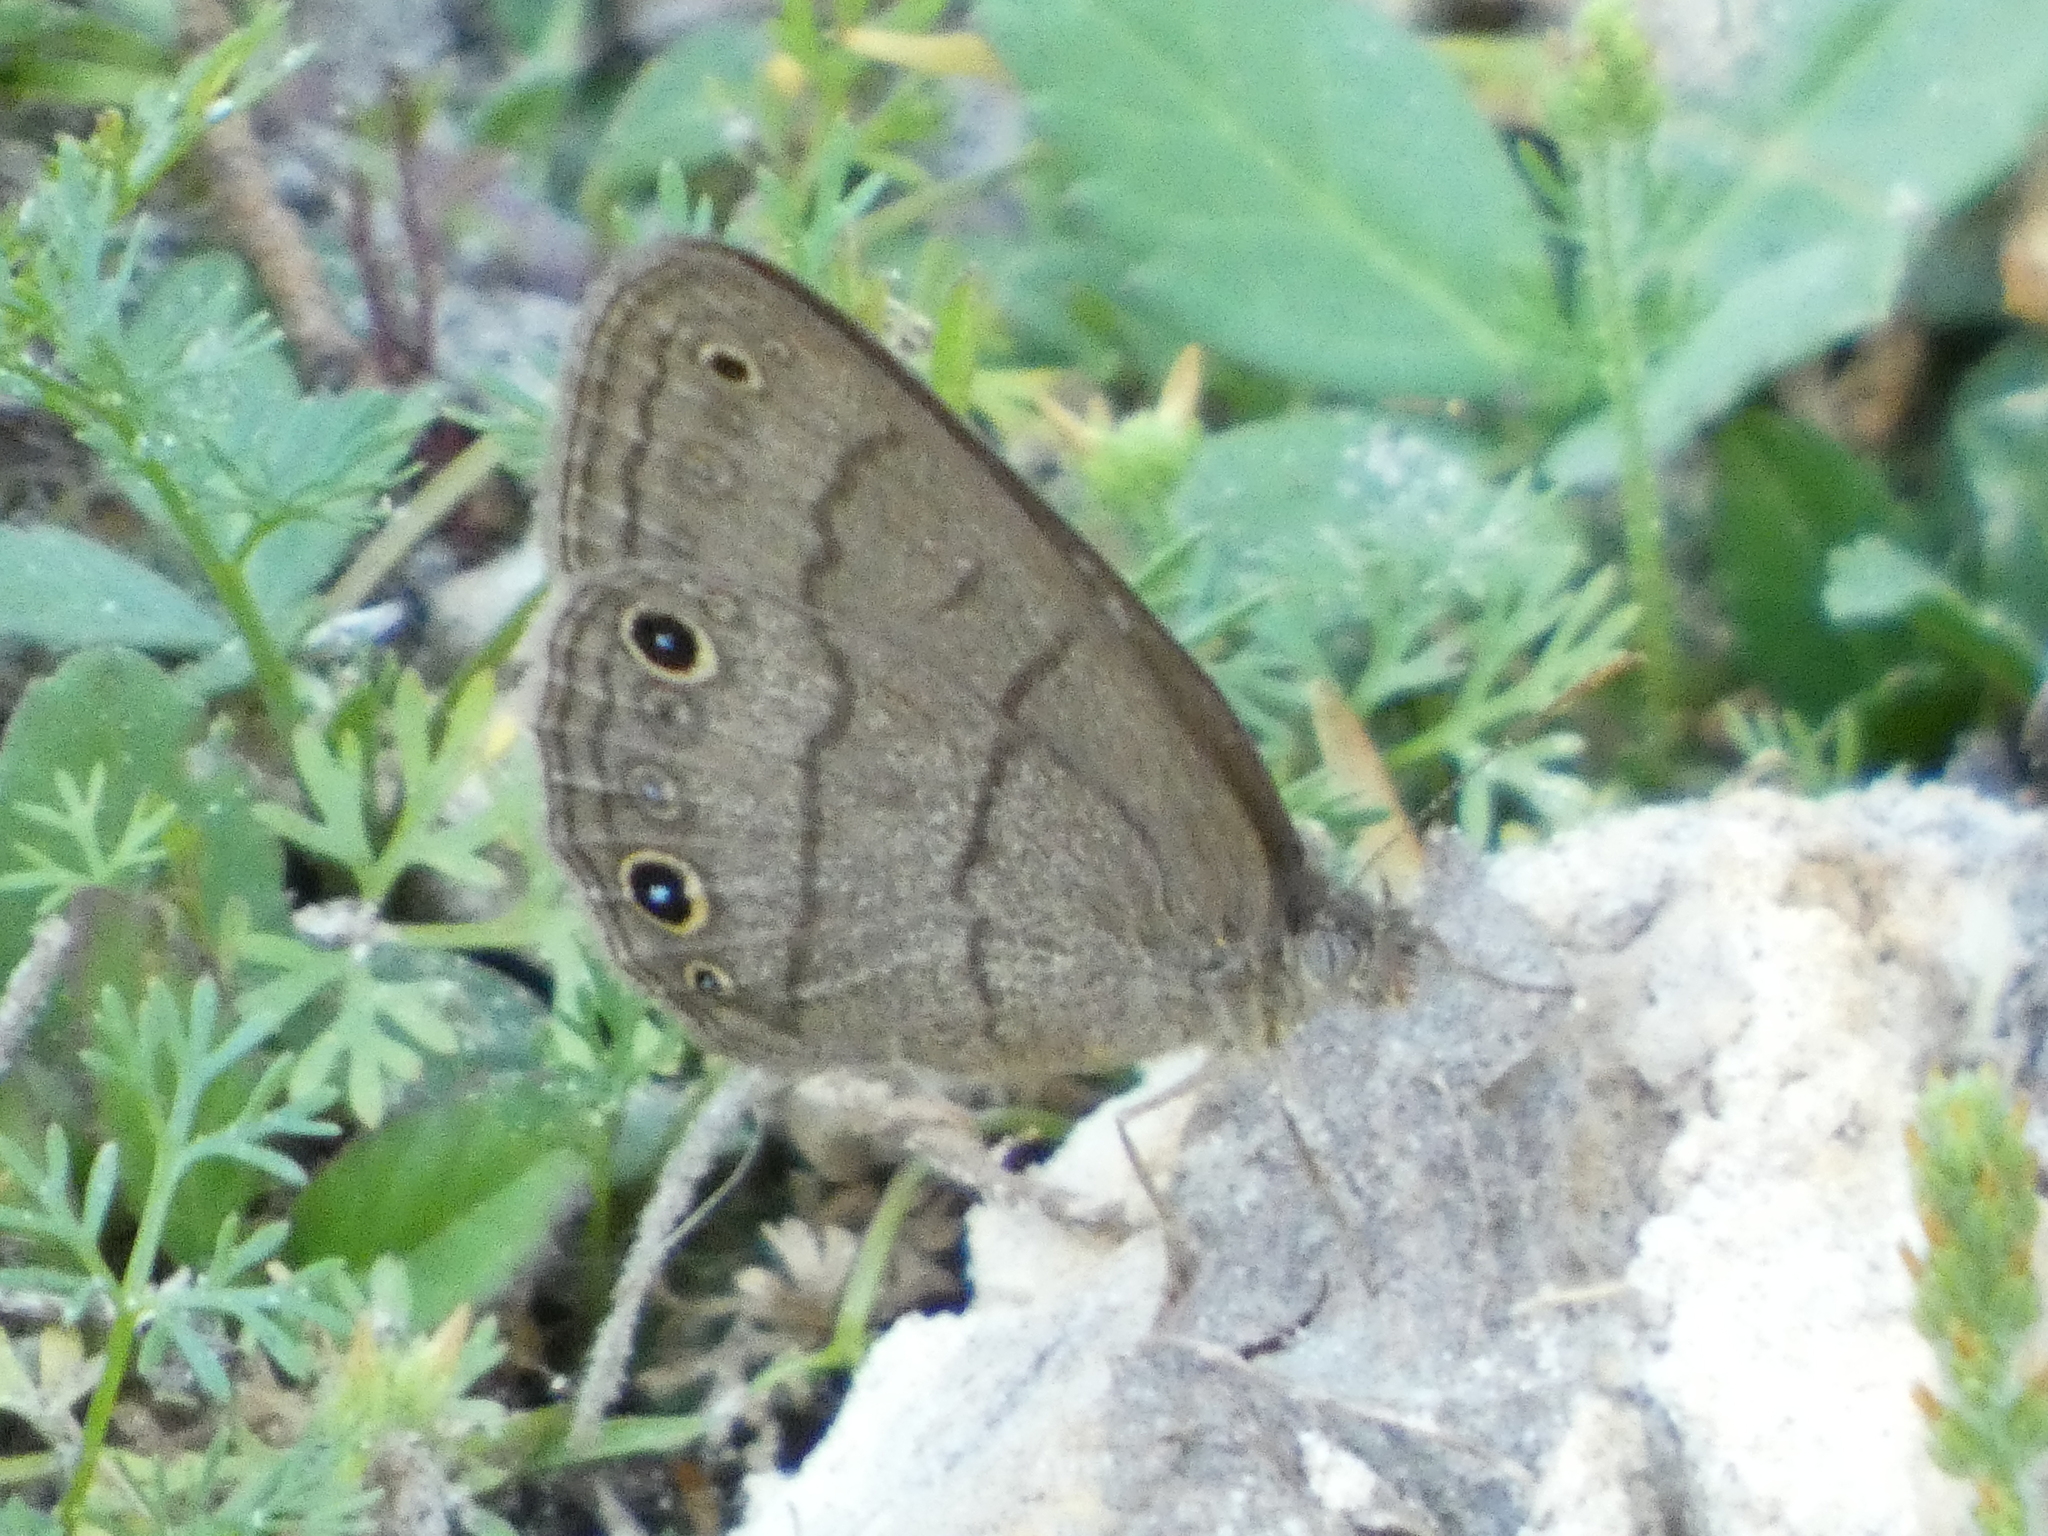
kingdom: Animalia
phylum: Arthropoda
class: Insecta
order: Lepidoptera
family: Nymphalidae
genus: Hermeuptychia
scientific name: Hermeuptychia hermes
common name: Hermes satyr
